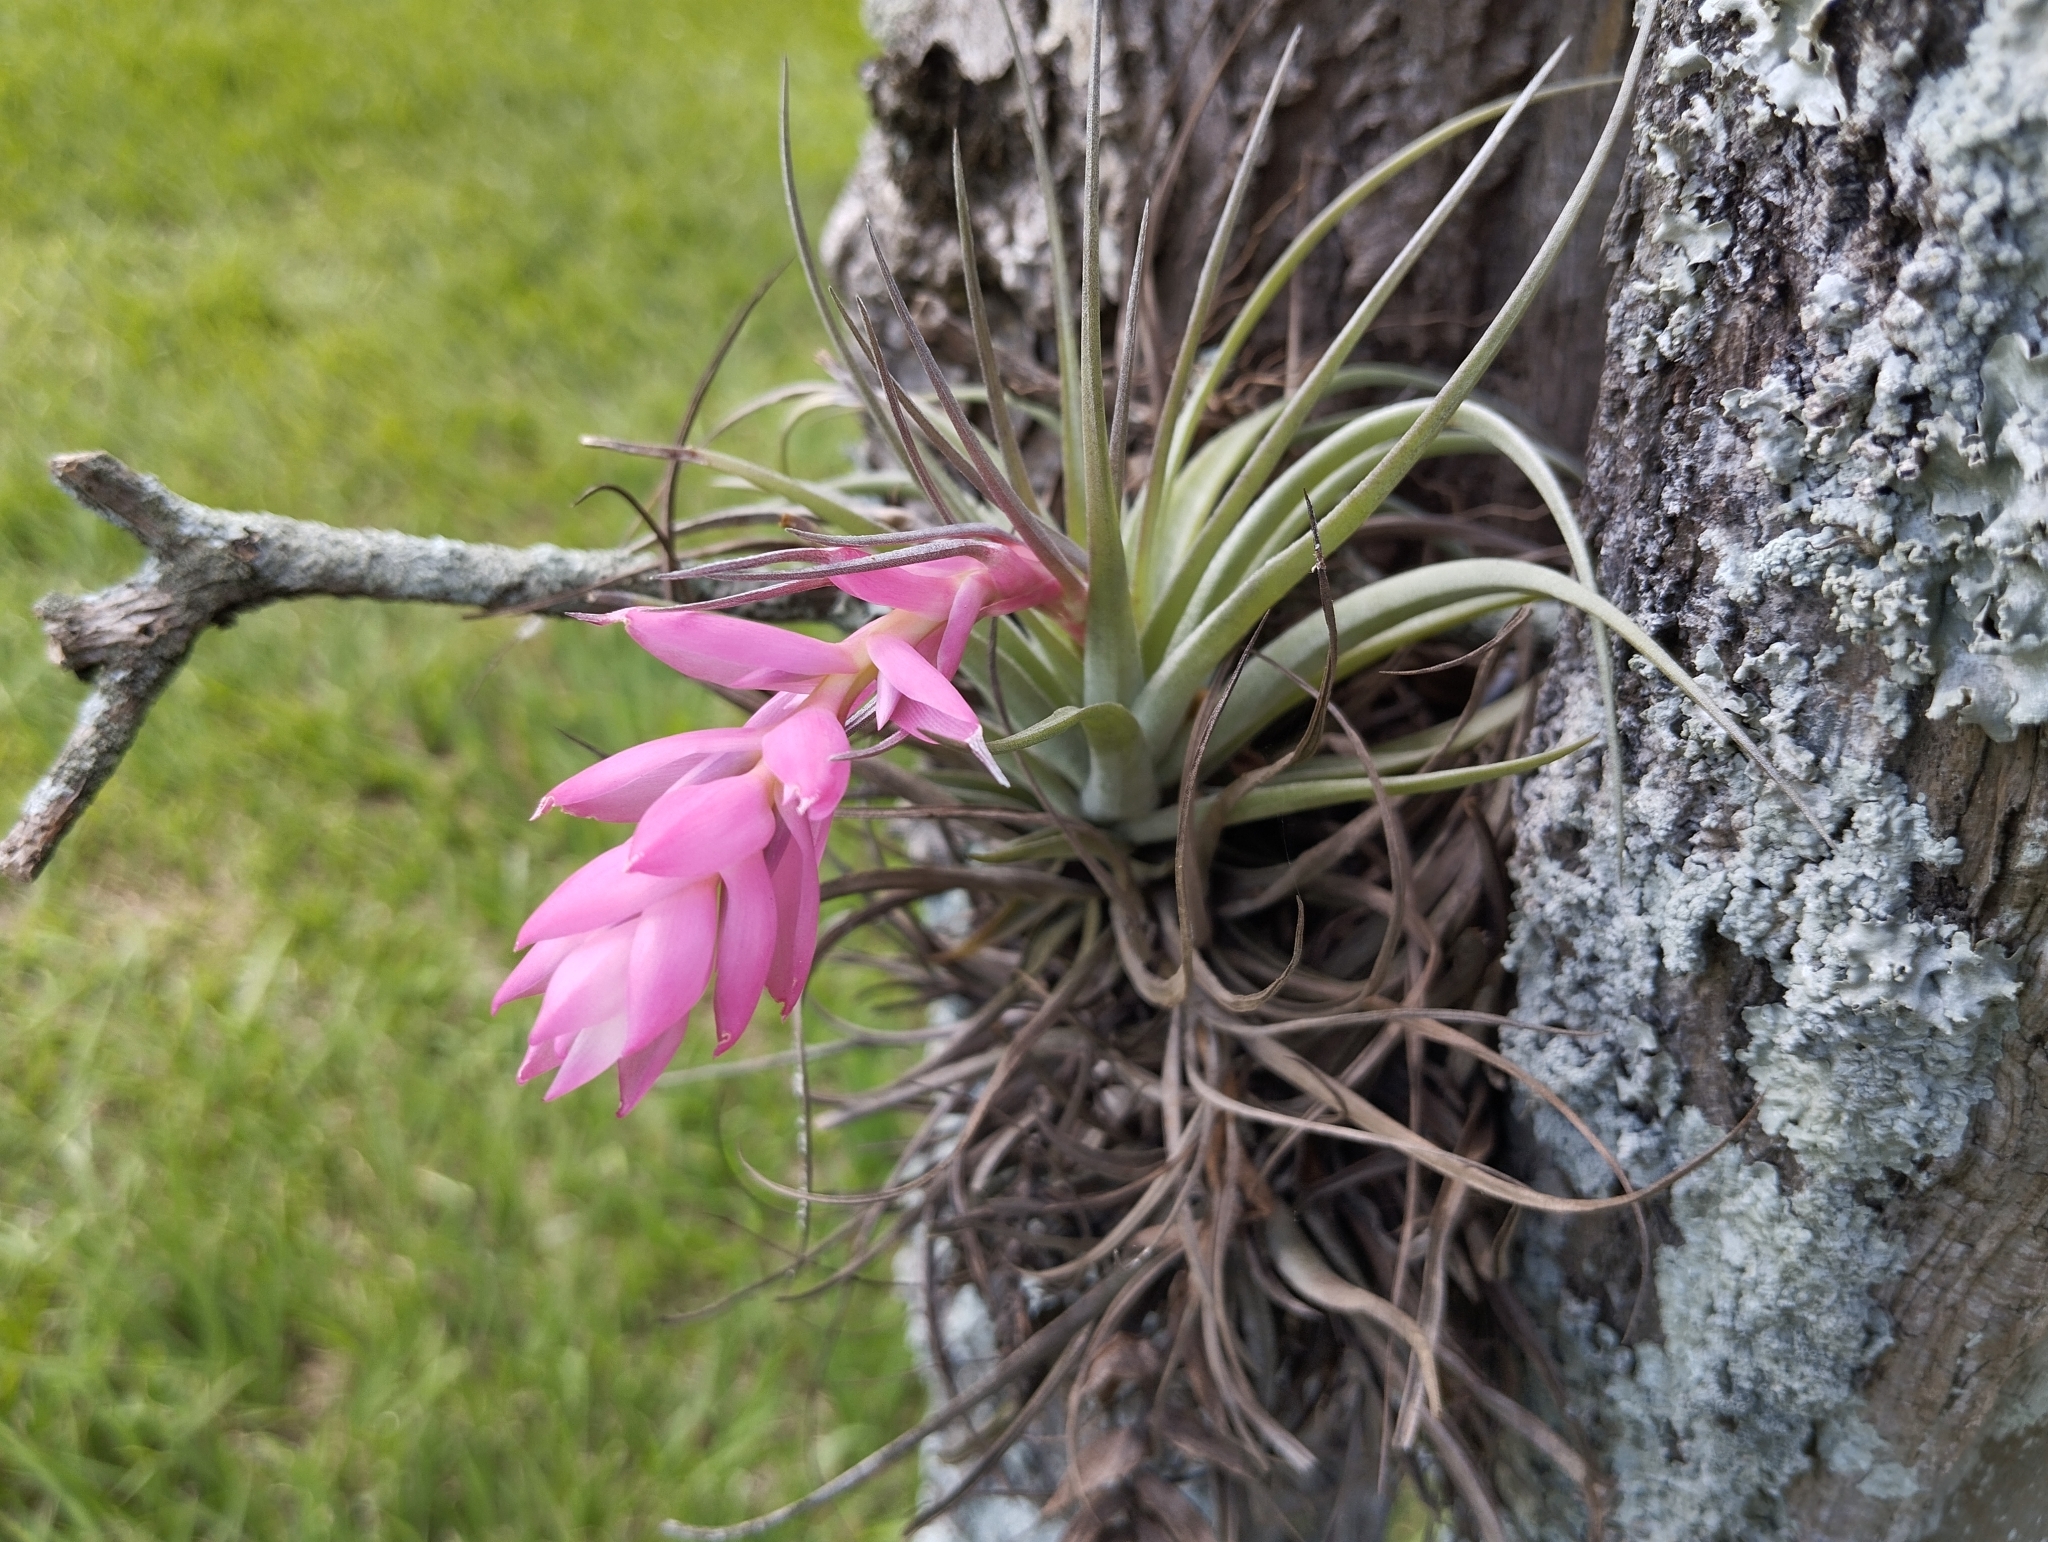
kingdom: Plantae
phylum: Tracheophyta
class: Liliopsida
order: Poales
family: Bromeliaceae
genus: Tillandsia
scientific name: Tillandsia stricta
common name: Airplant
